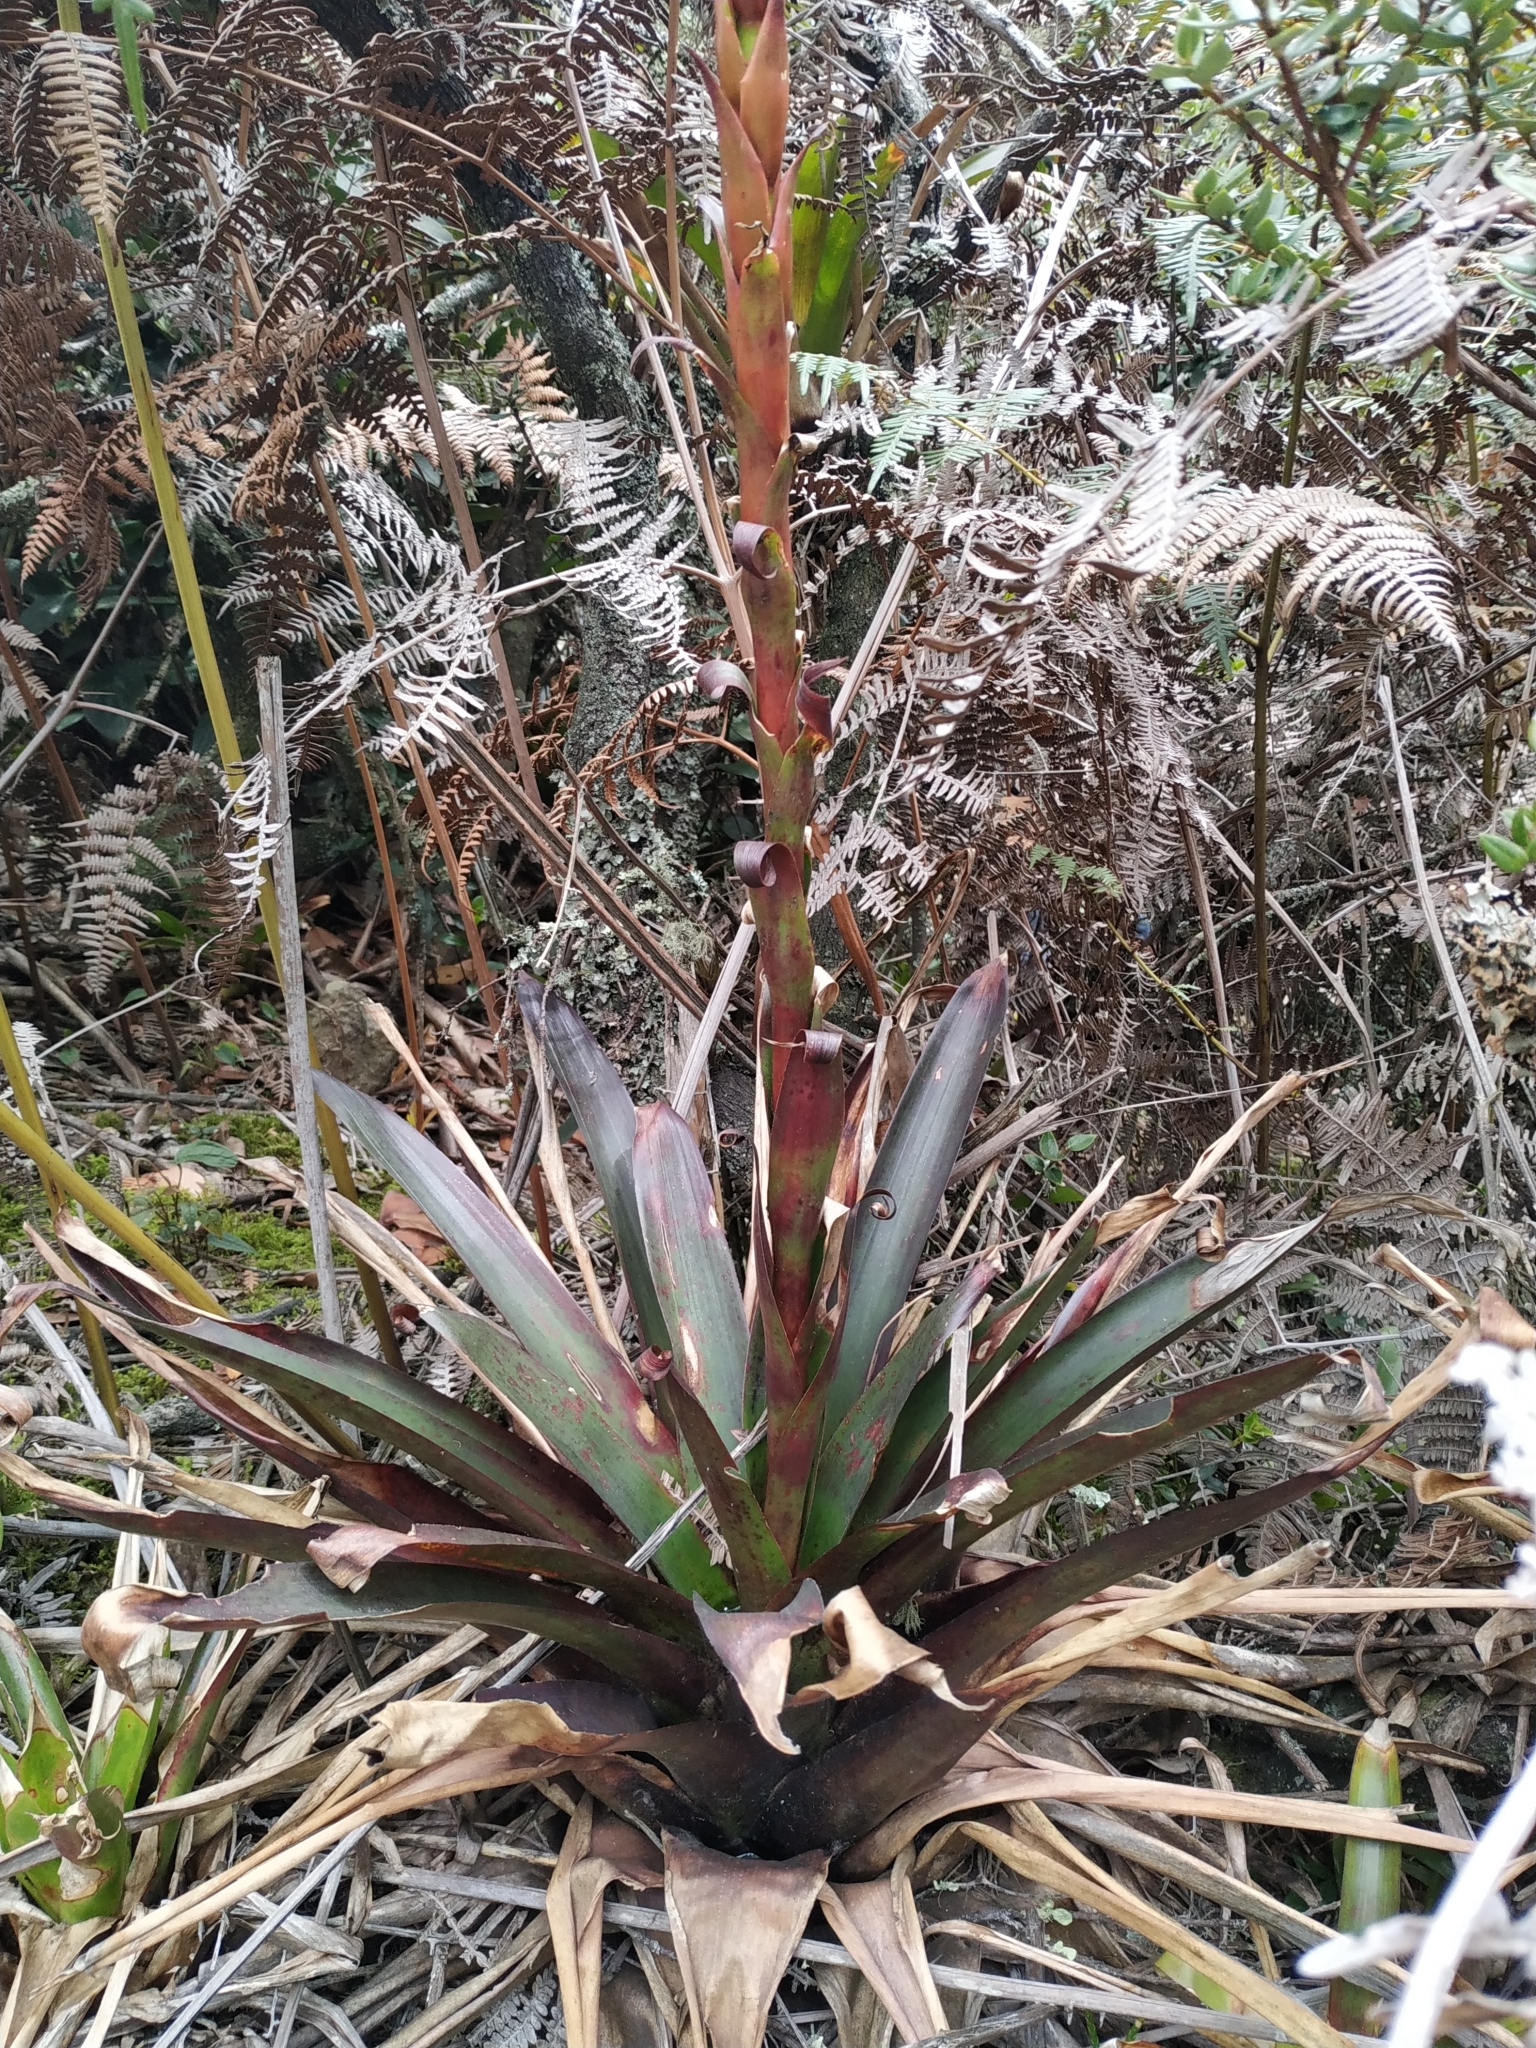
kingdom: Plantae
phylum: Tracheophyta
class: Liliopsida
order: Poales
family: Bromeliaceae
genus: Tillandsia
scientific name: Tillandsia pastensis
